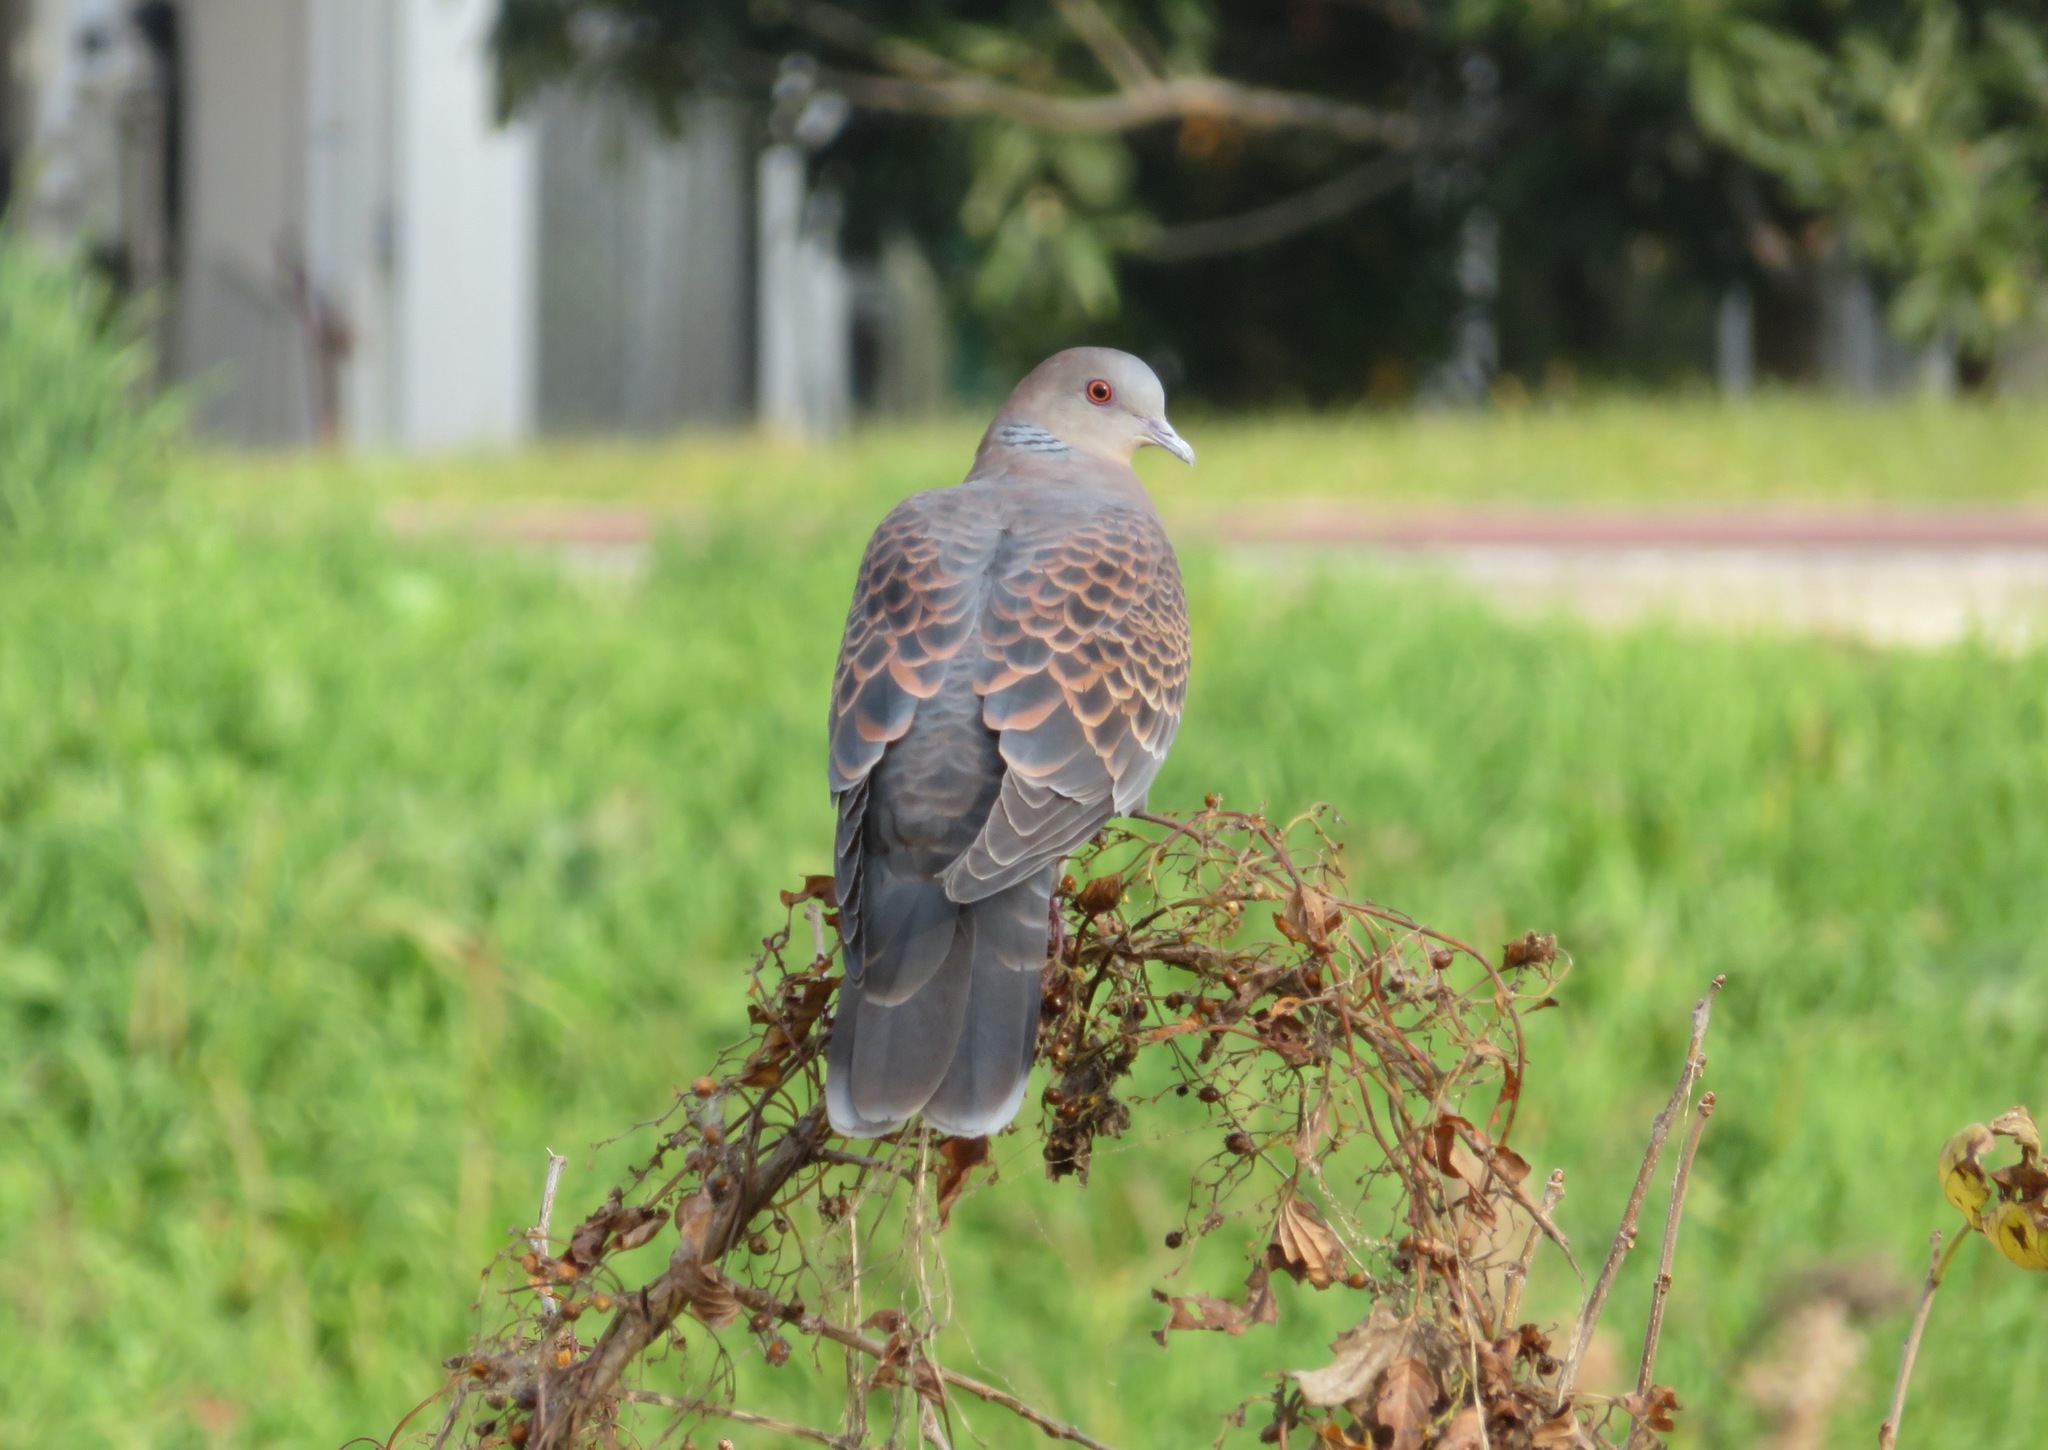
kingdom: Animalia
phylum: Chordata
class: Aves
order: Columbiformes
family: Columbidae
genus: Streptopelia
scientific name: Streptopelia orientalis
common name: Oriental turtle dove
